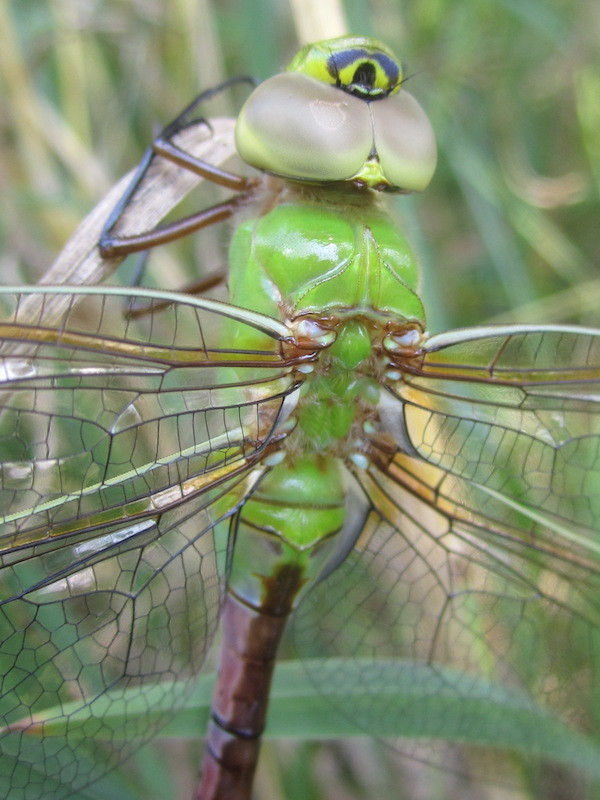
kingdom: Animalia
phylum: Arthropoda
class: Insecta
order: Odonata
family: Aeshnidae
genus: Anax
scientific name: Anax junius
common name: Common green darner
